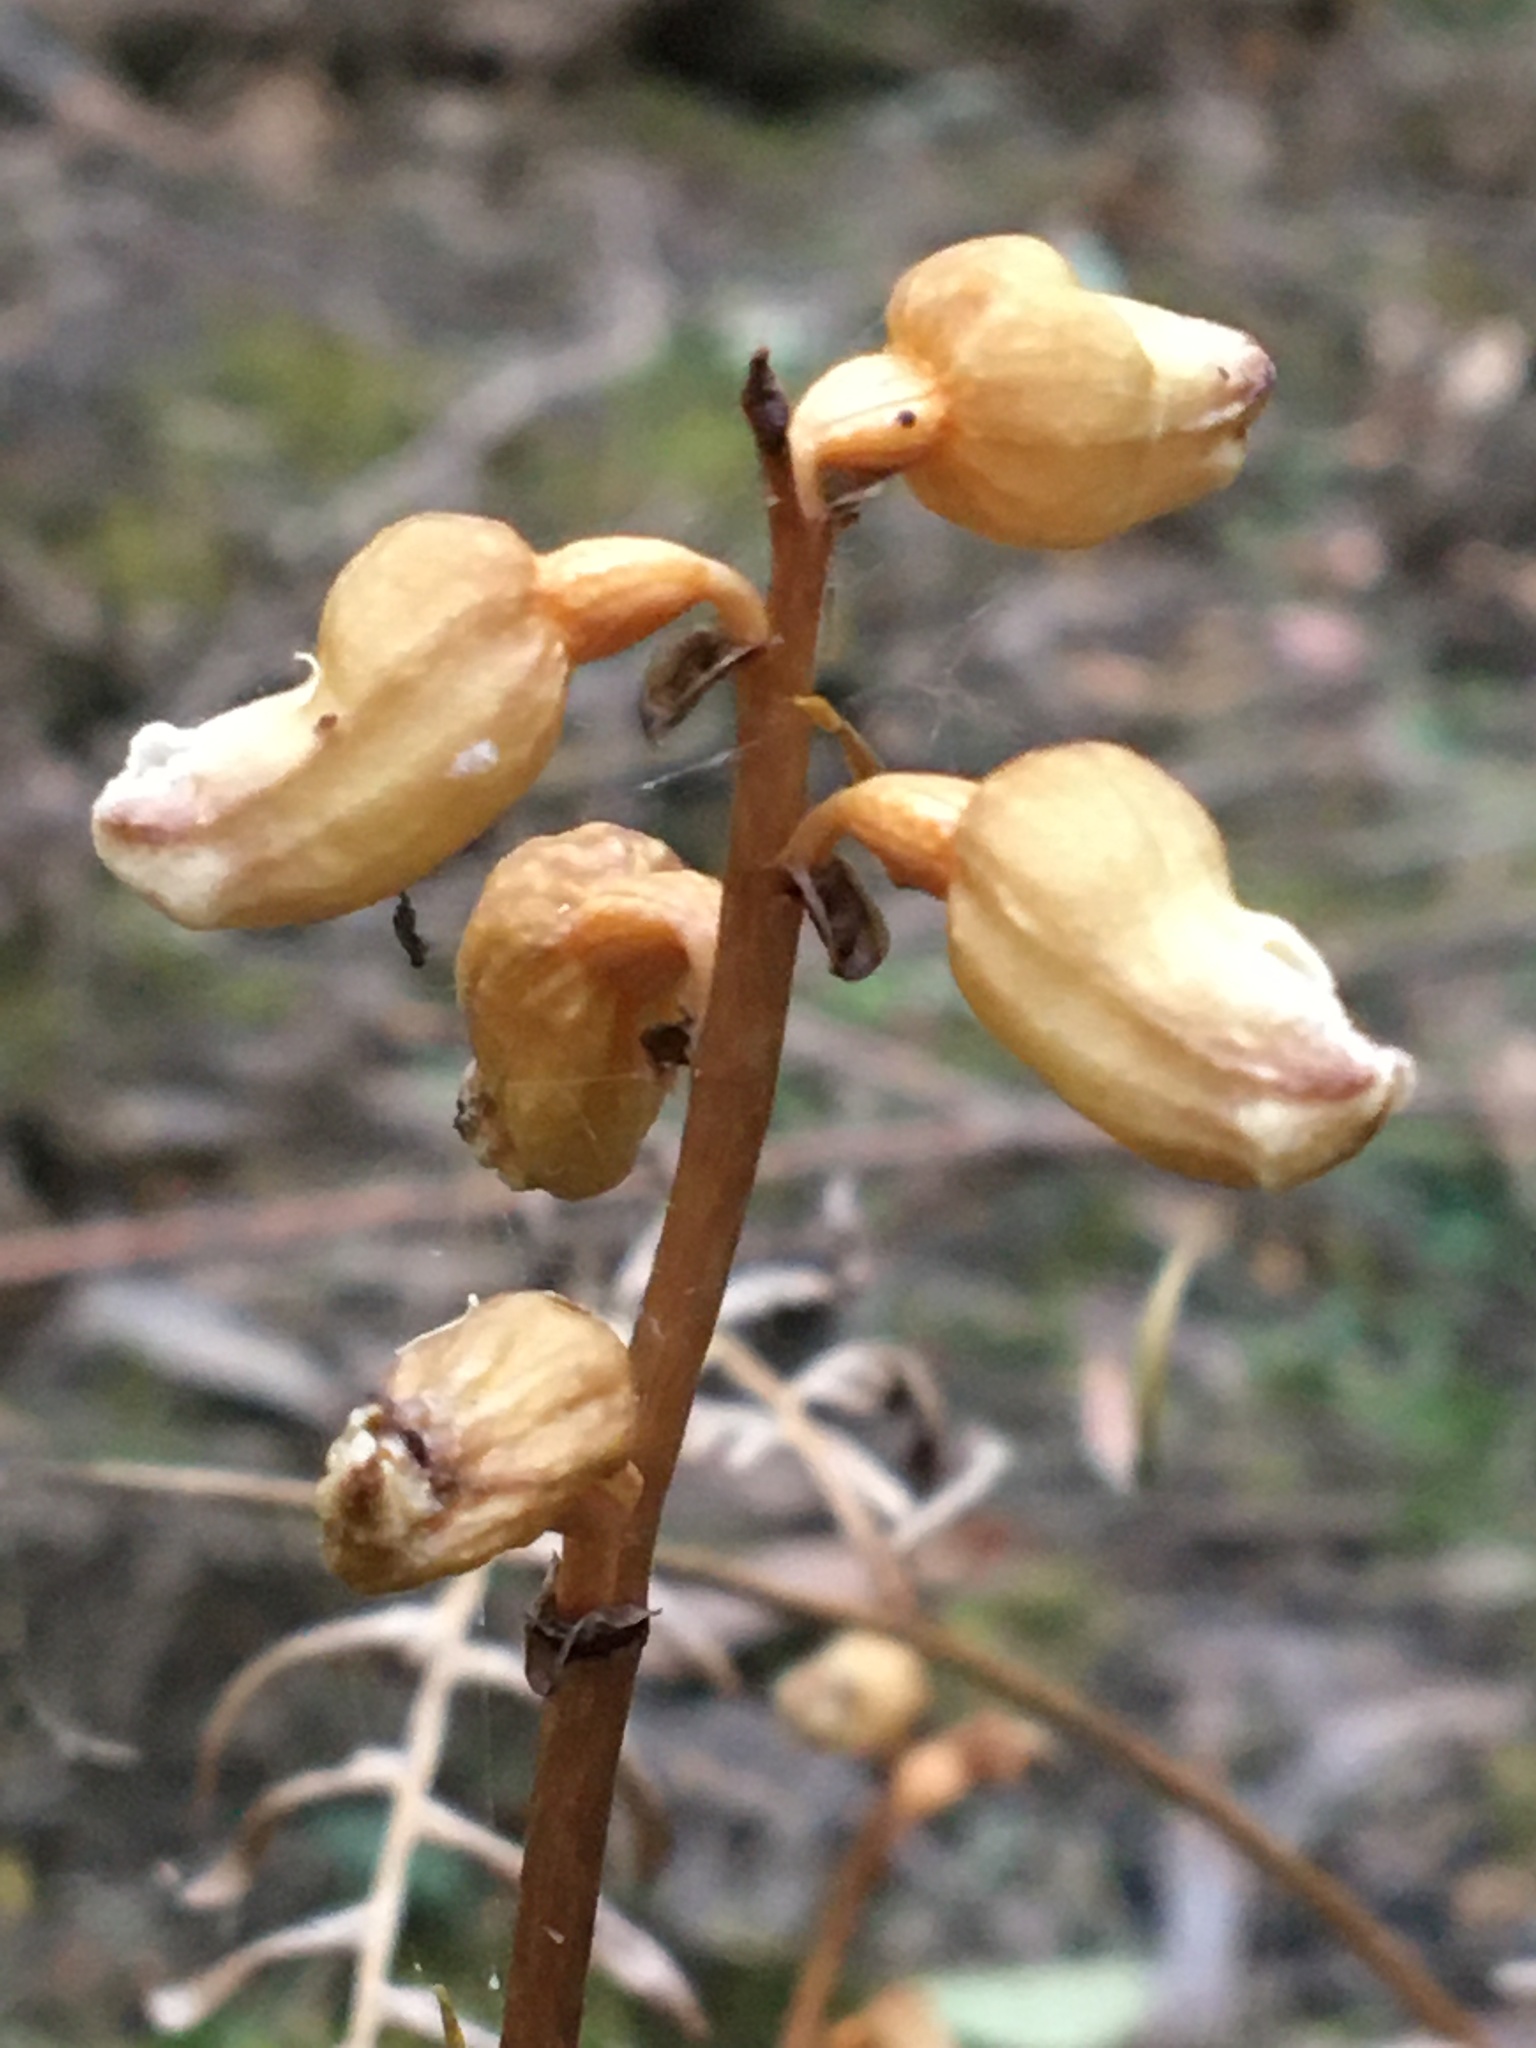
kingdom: Plantae
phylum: Tracheophyta
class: Liliopsida
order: Asparagales
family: Orchidaceae
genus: Gastrodia
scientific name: Gastrodia sesamoides
